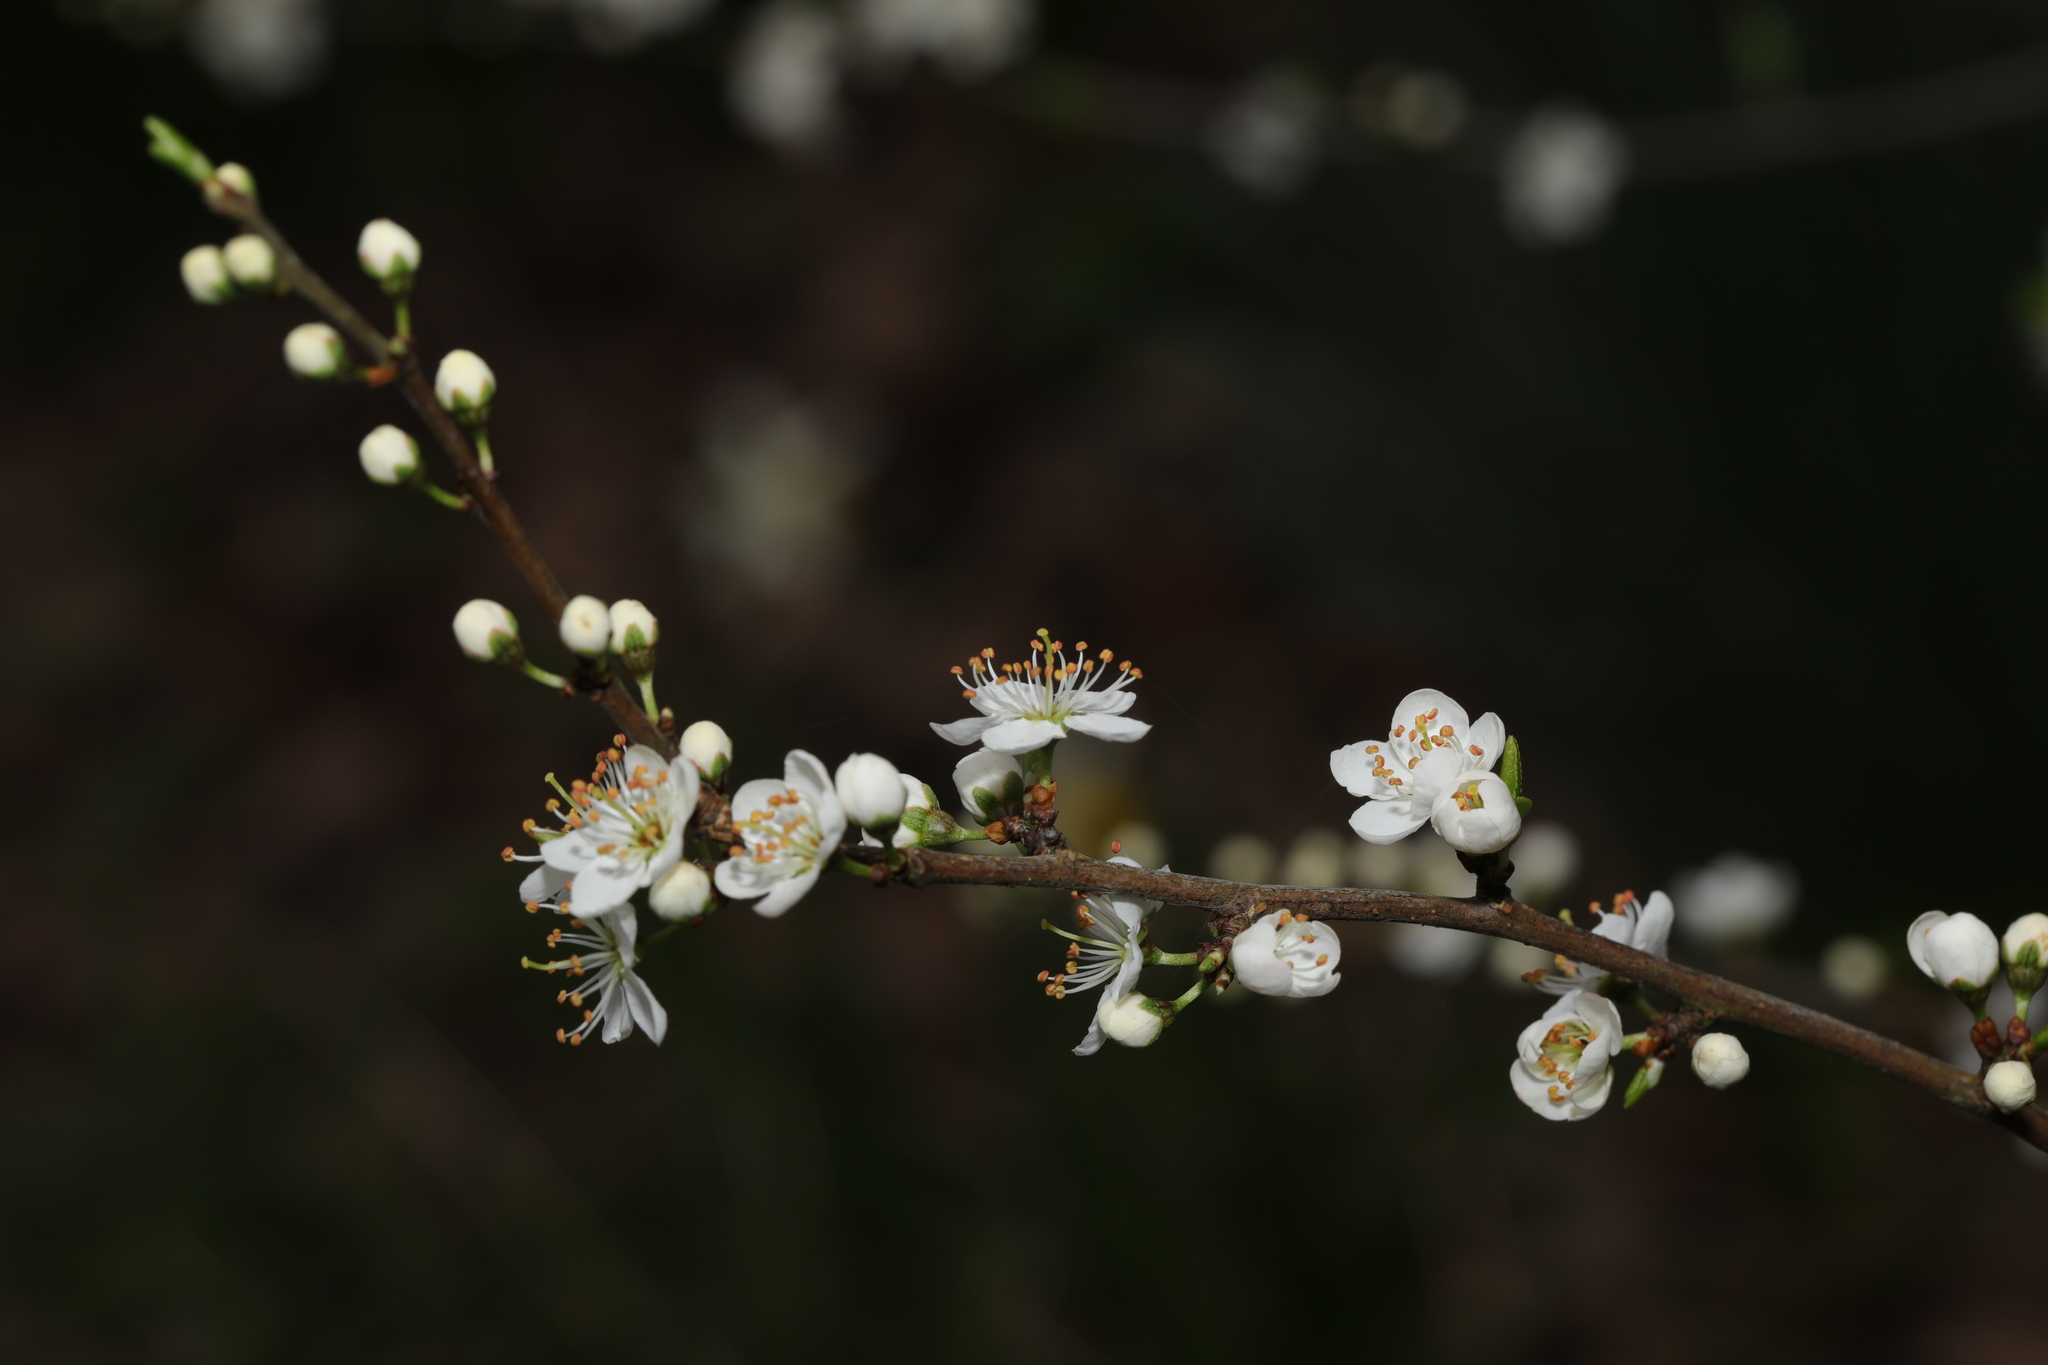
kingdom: Plantae
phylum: Tracheophyta
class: Magnoliopsida
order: Rosales
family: Rosaceae
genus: Prunus
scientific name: Prunus spinosa
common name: Blackthorn
